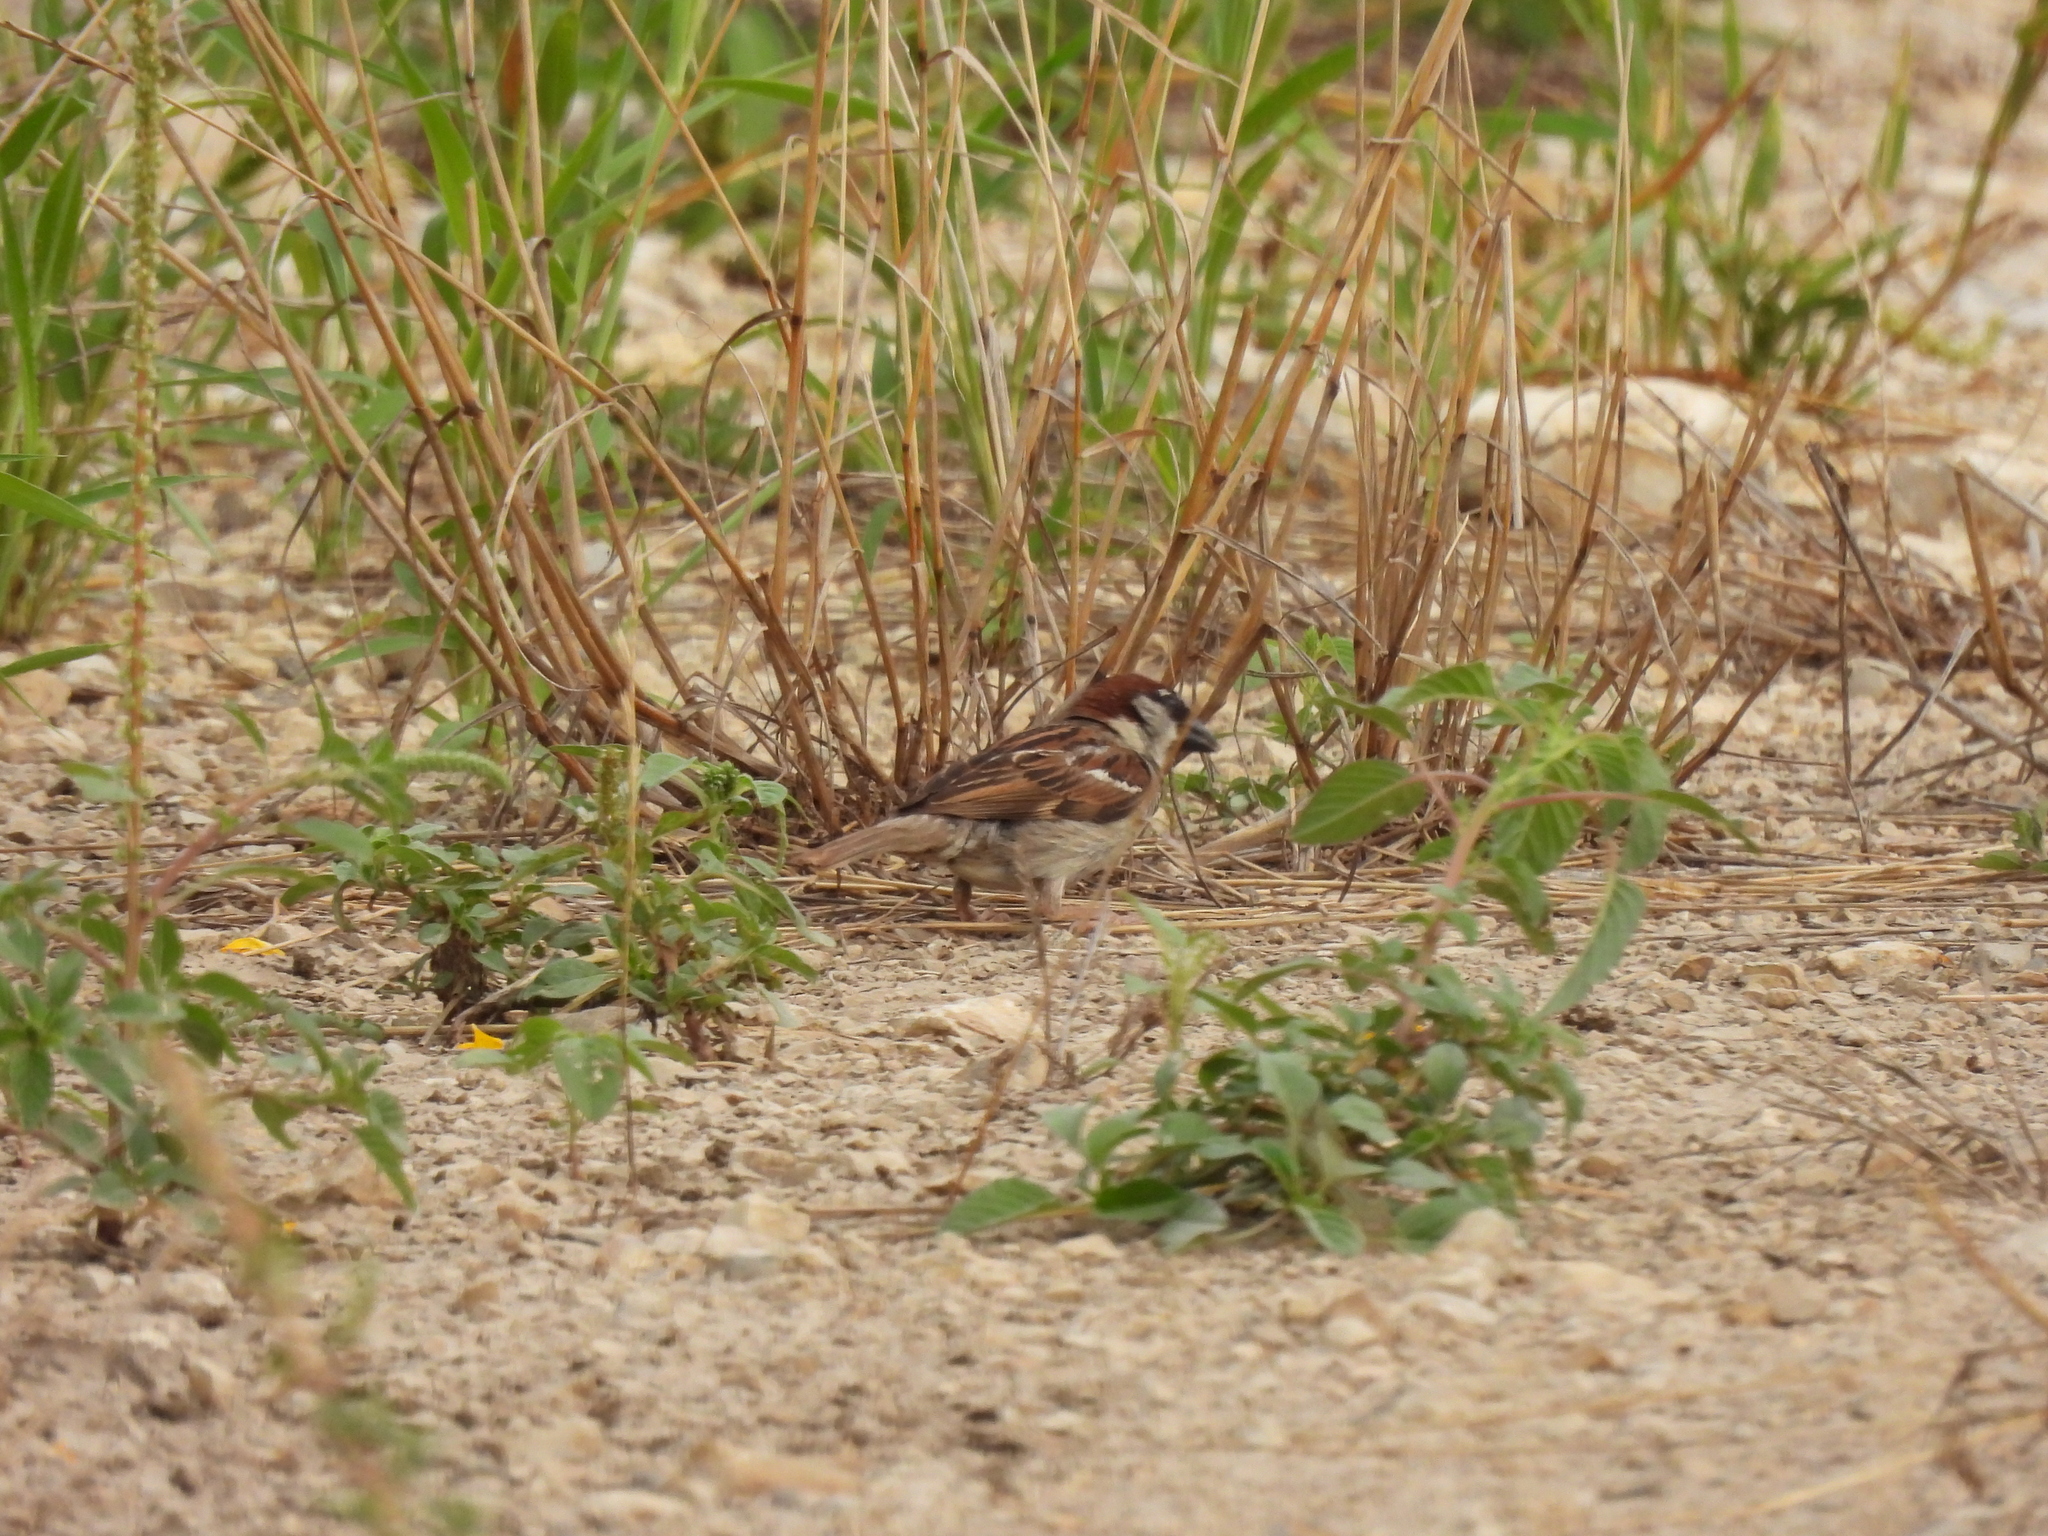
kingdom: Animalia
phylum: Chordata
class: Aves
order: Passeriformes
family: Passeridae
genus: Passer
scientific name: Passer domesticus
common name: House sparrow
